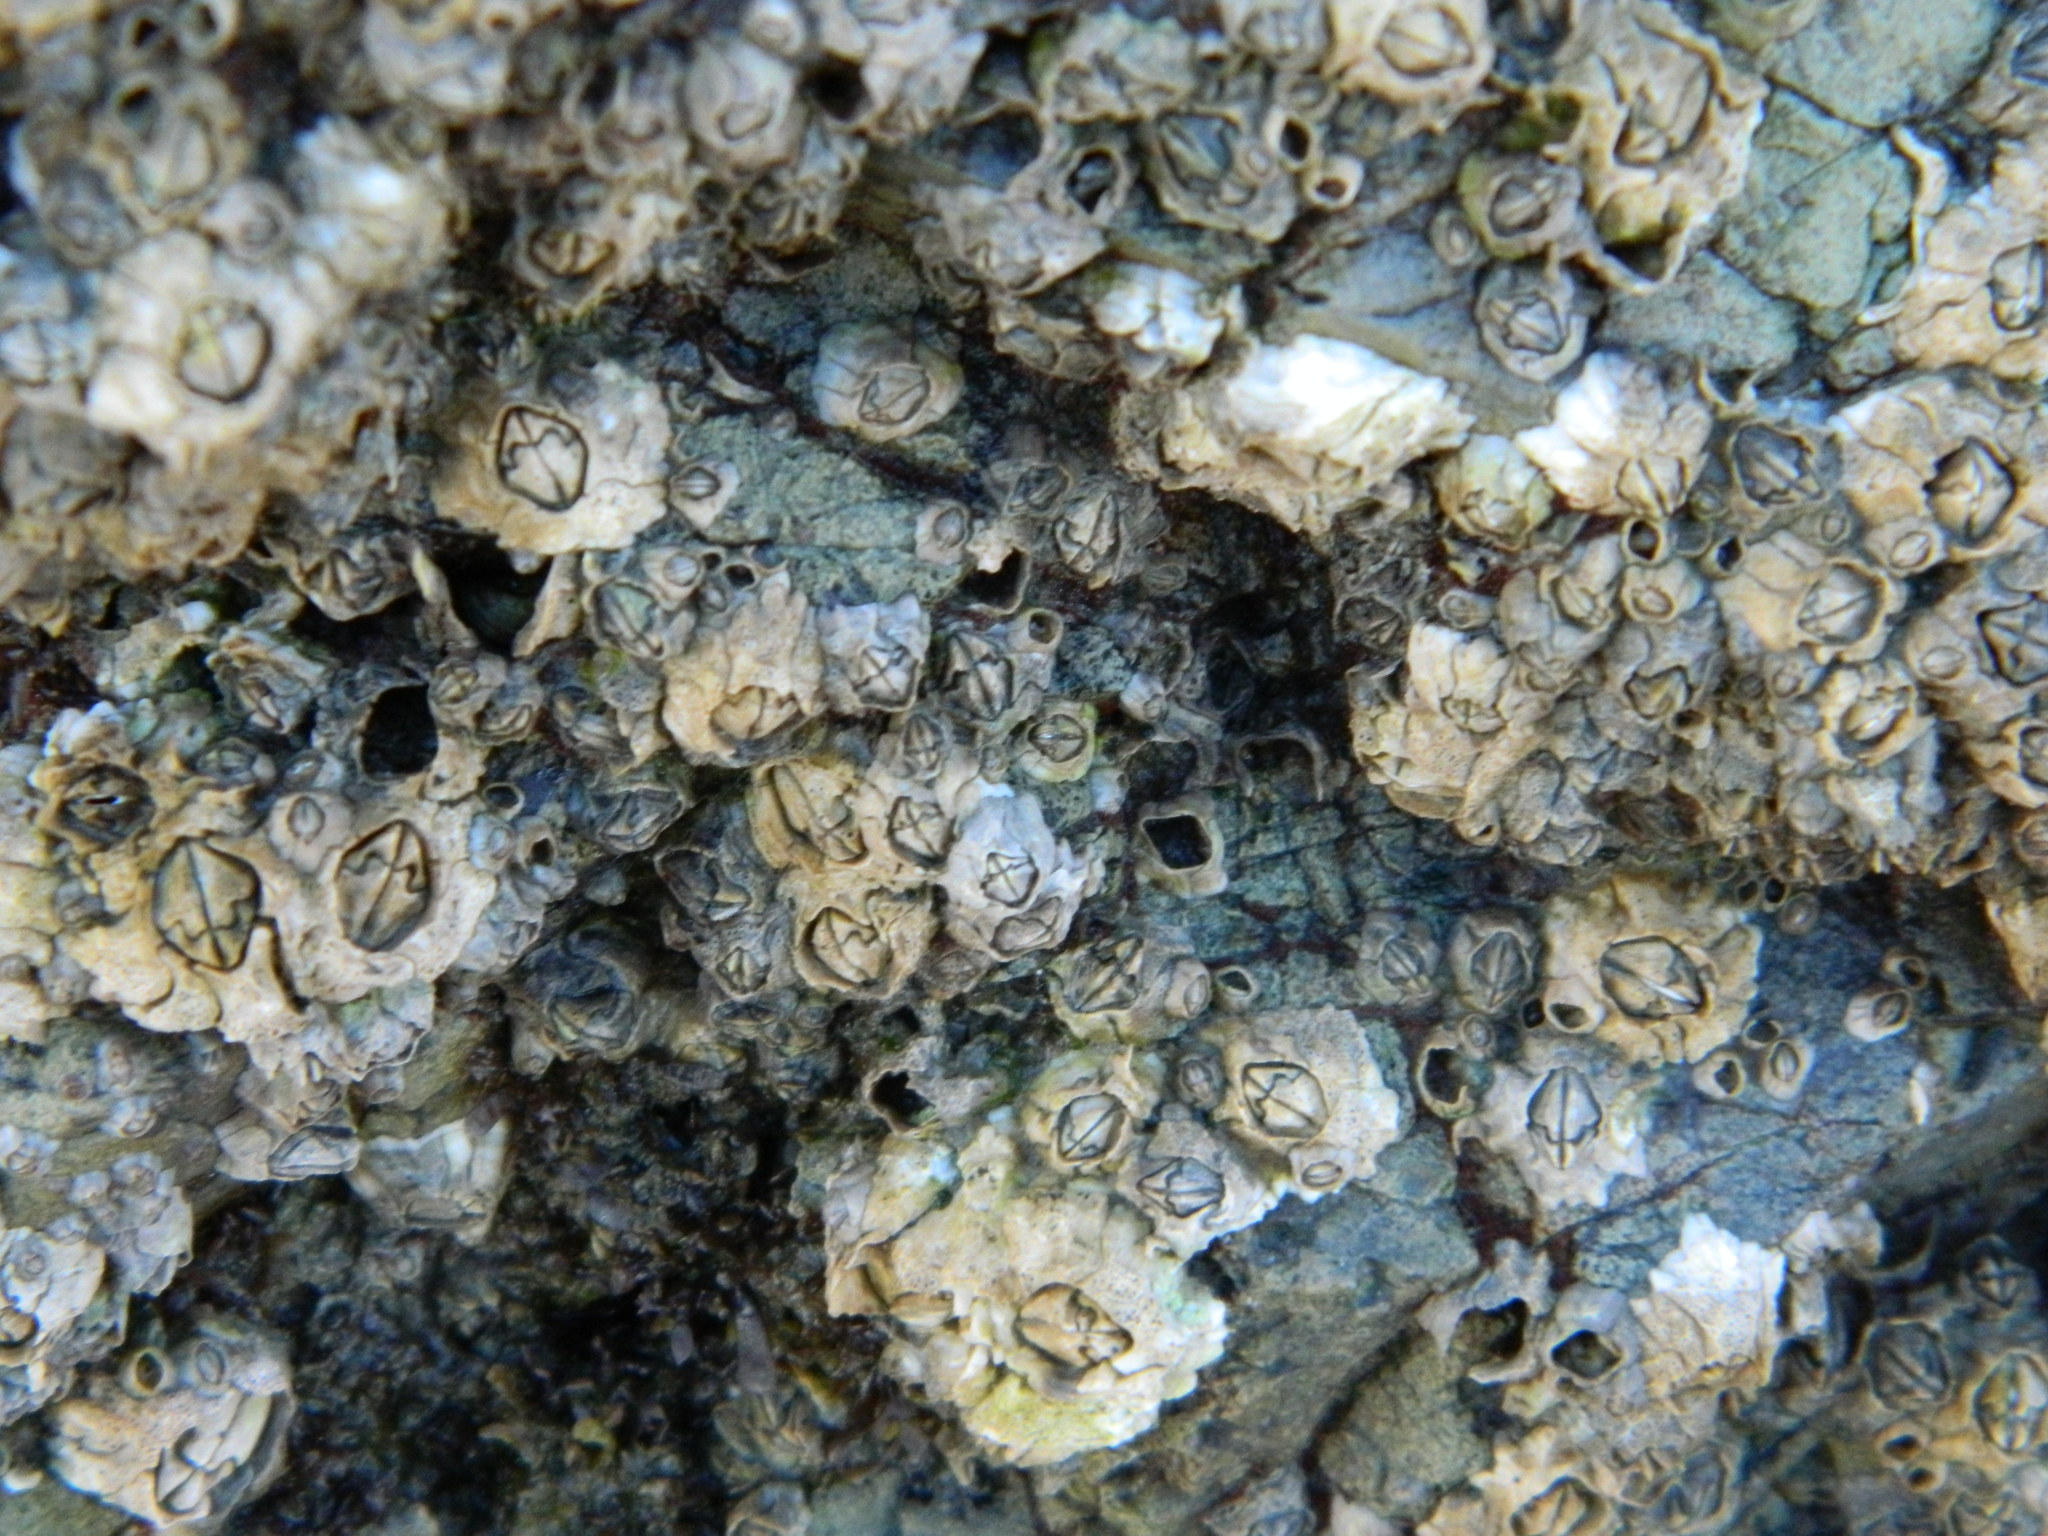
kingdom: Animalia
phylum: Arthropoda
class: Maxillopoda
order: Sessilia
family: Archaeobalanidae
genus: Semibalanus
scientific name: Semibalanus balanoides
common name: Acorn barnacle
